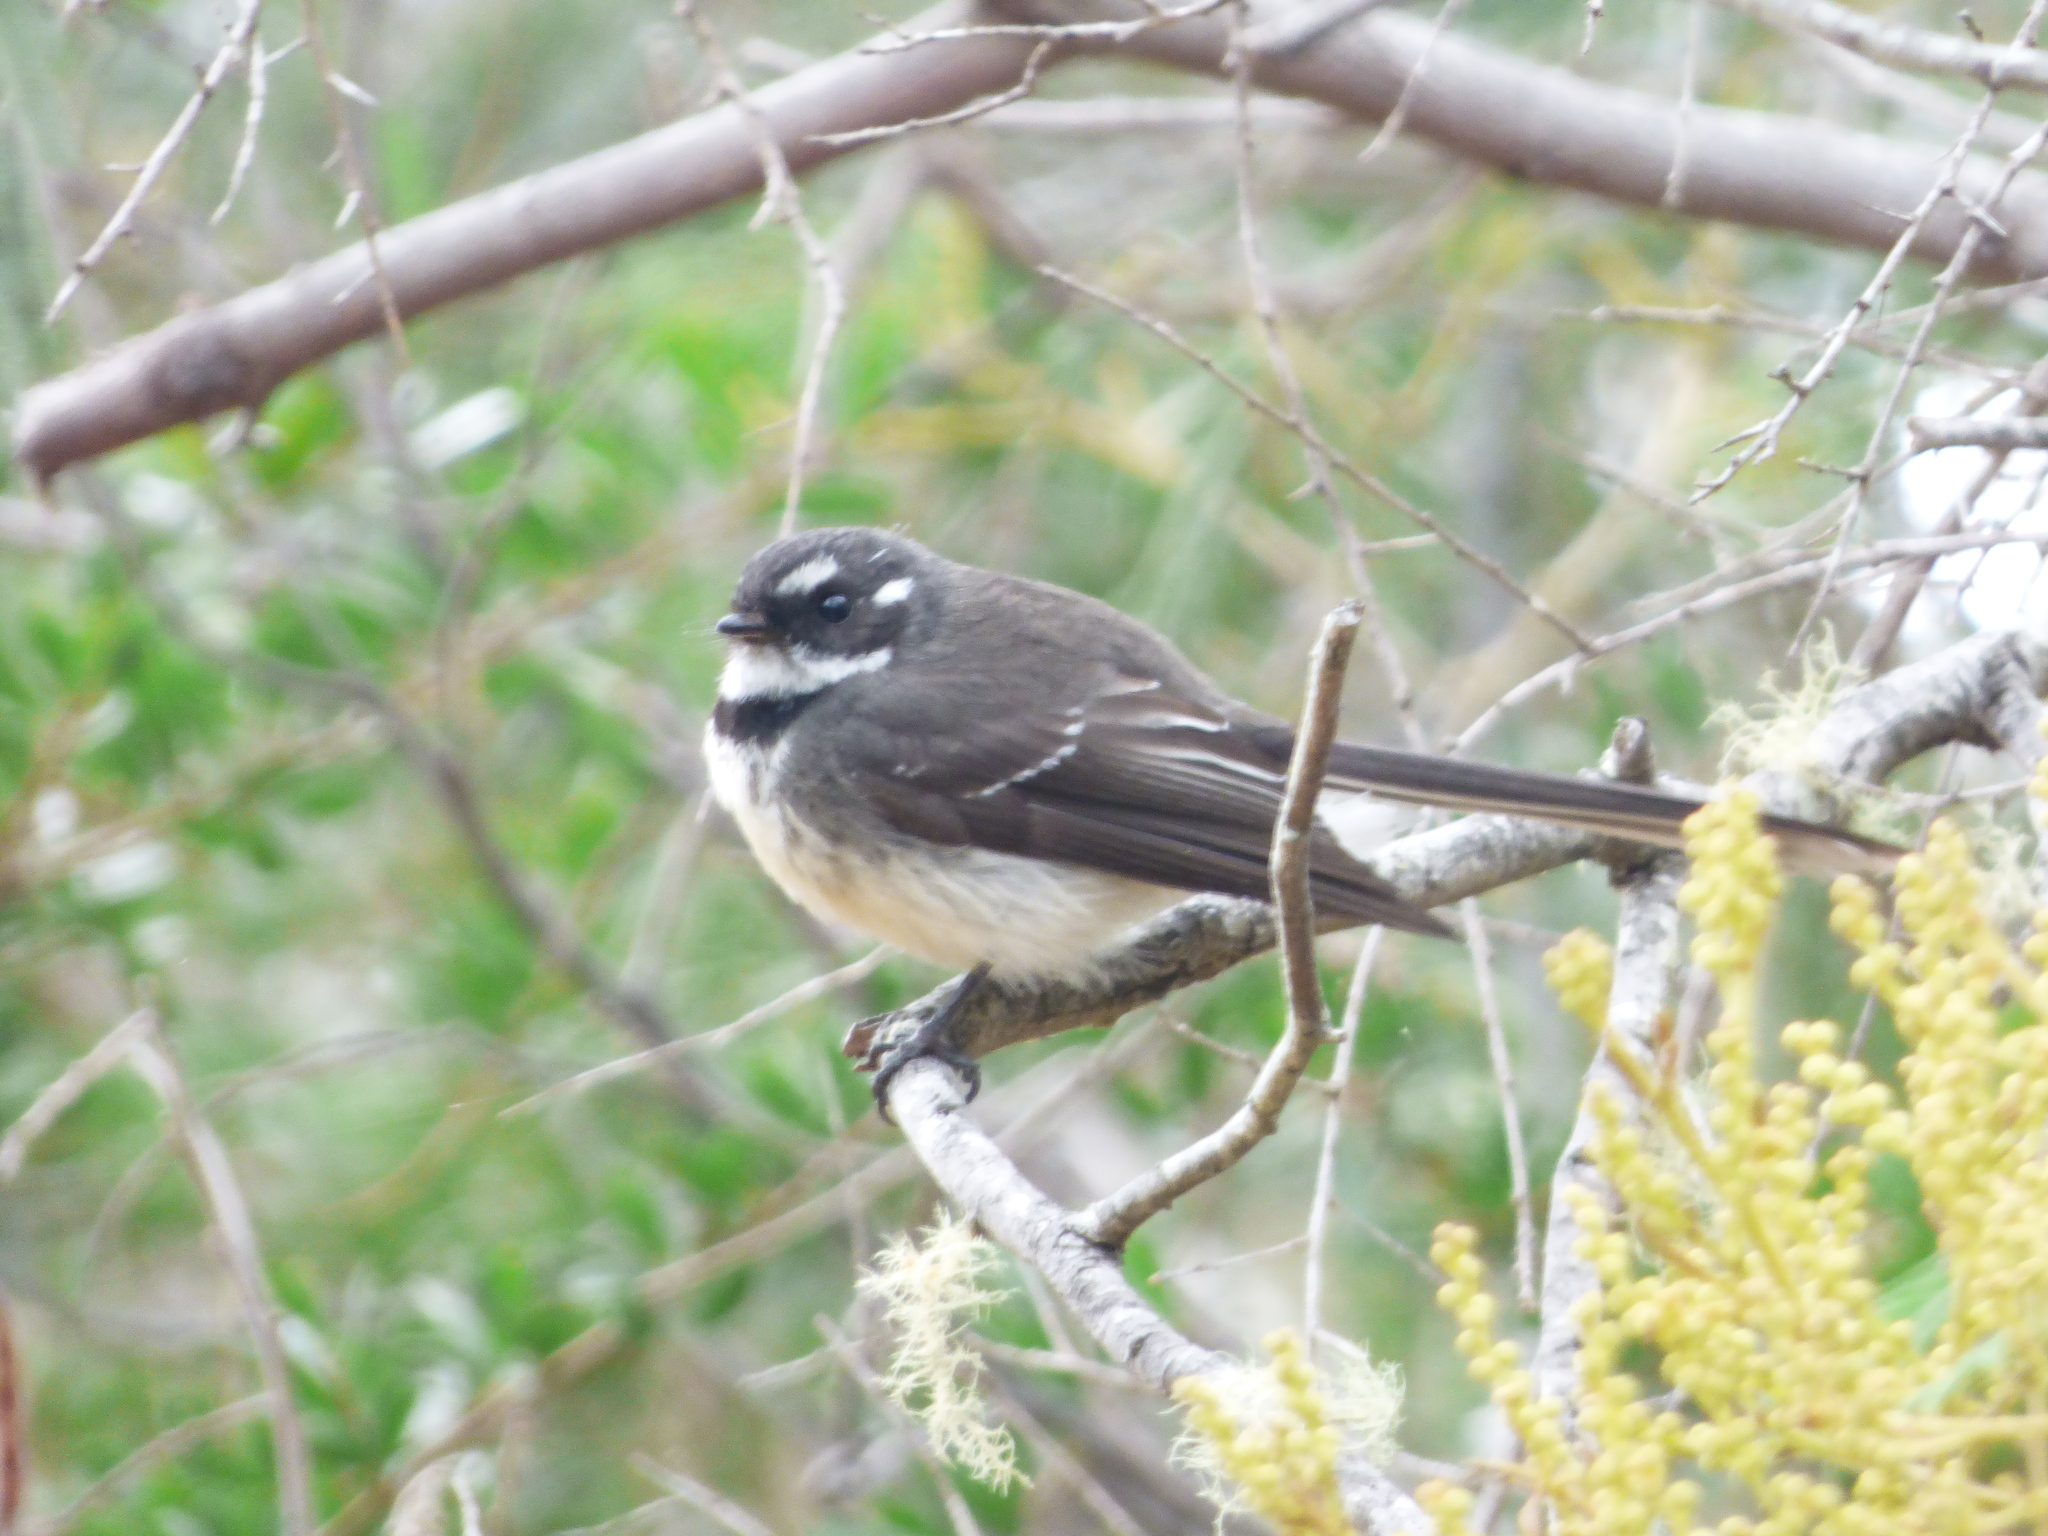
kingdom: Animalia
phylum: Chordata
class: Aves
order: Passeriformes
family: Rhipiduridae
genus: Rhipidura
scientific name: Rhipidura albiscapa
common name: Grey fantail
